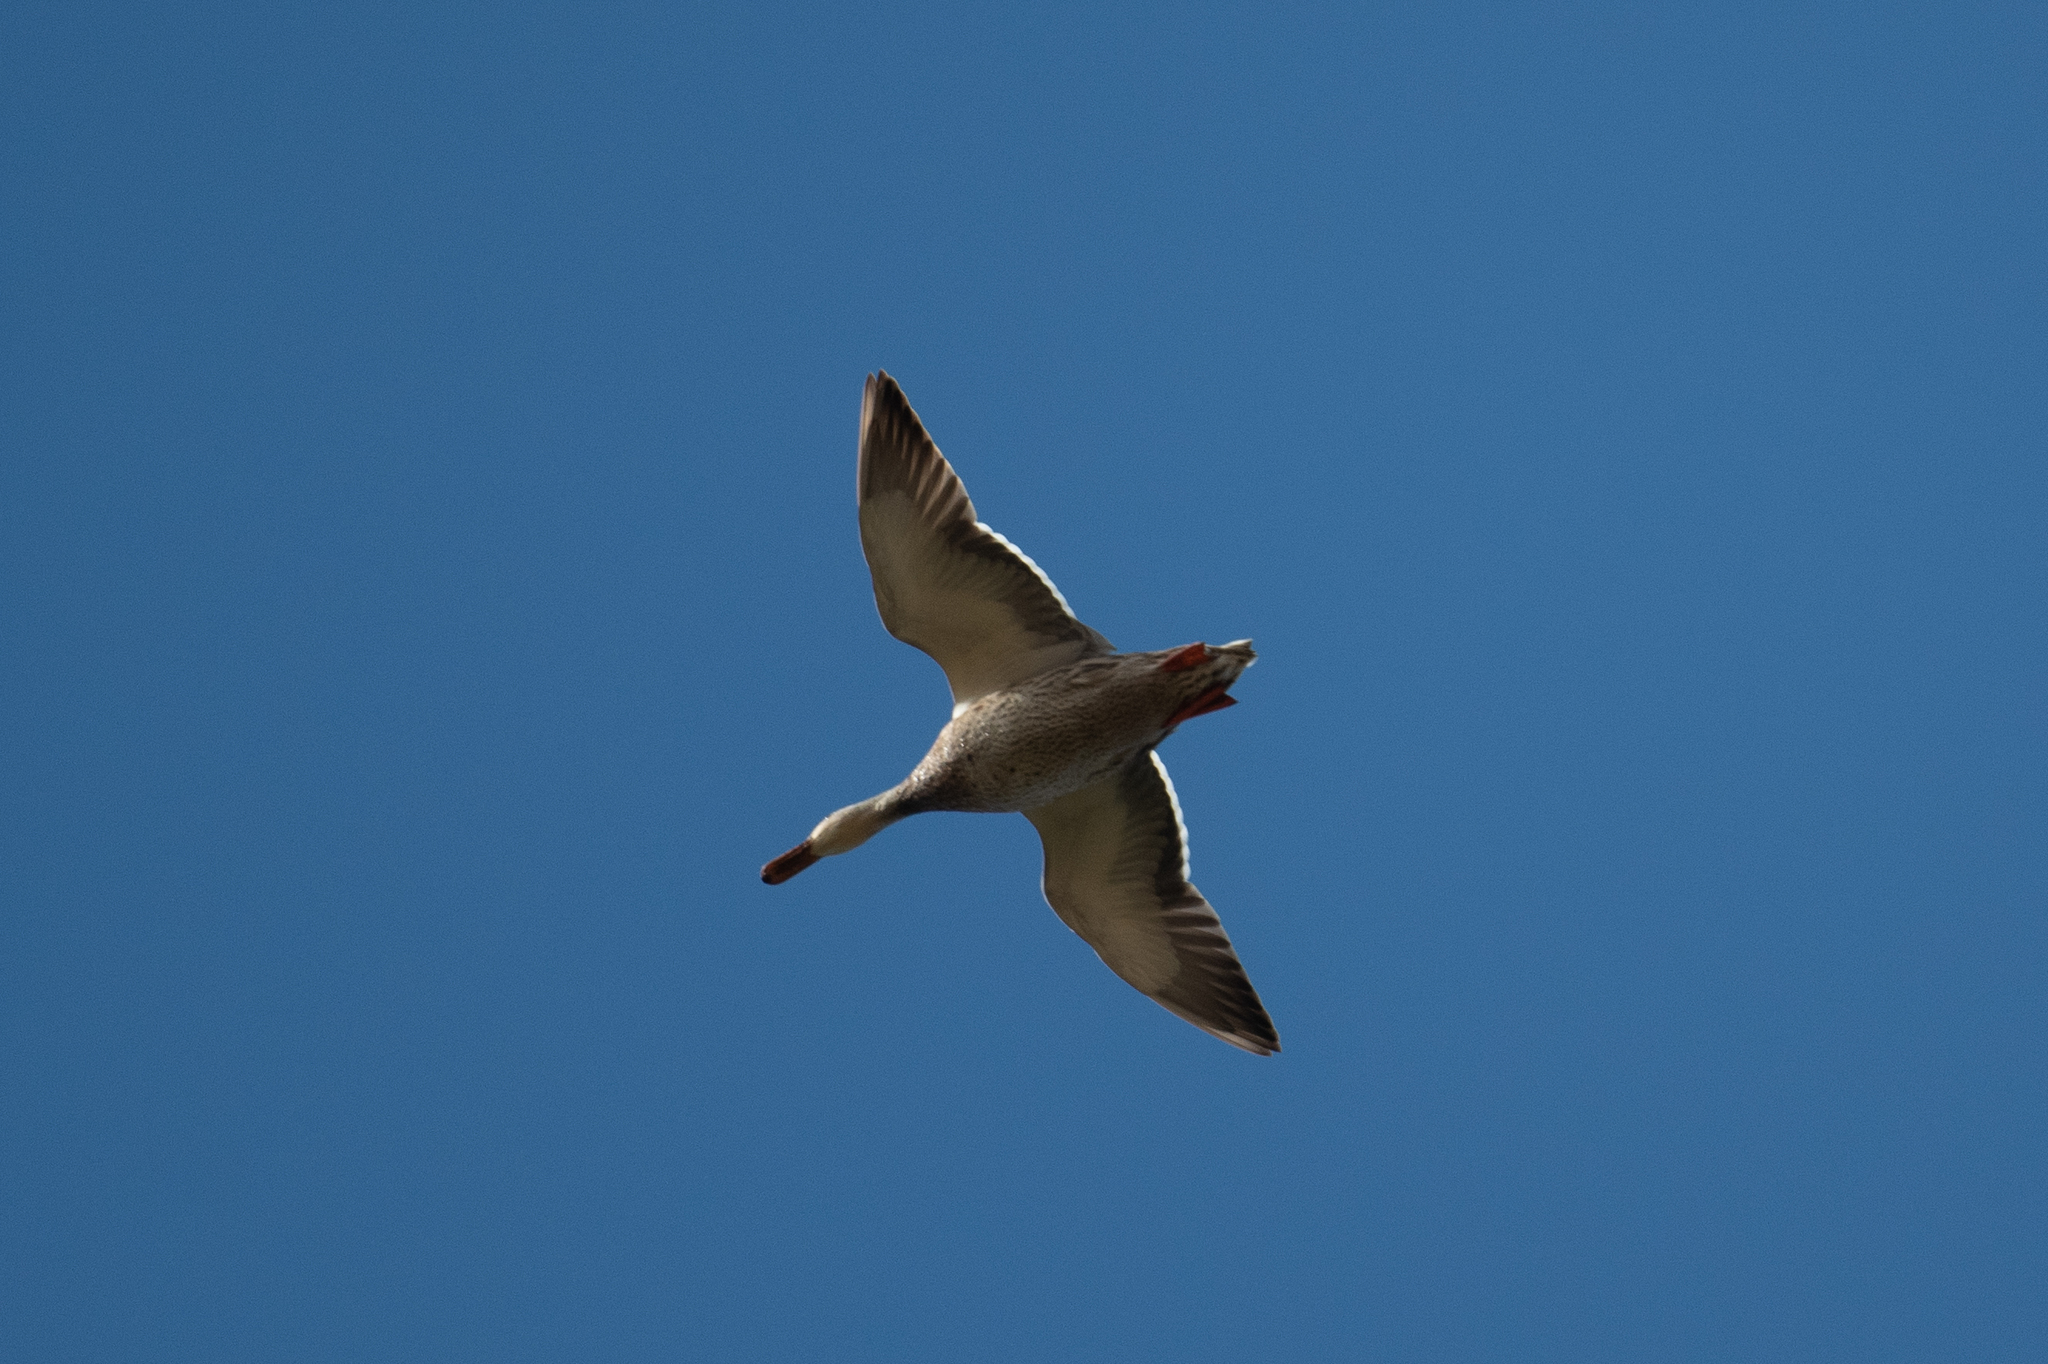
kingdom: Animalia
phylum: Chordata
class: Aves
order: Anseriformes
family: Anatidae
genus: Anas
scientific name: Anas platyrhynchos
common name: Mallard
